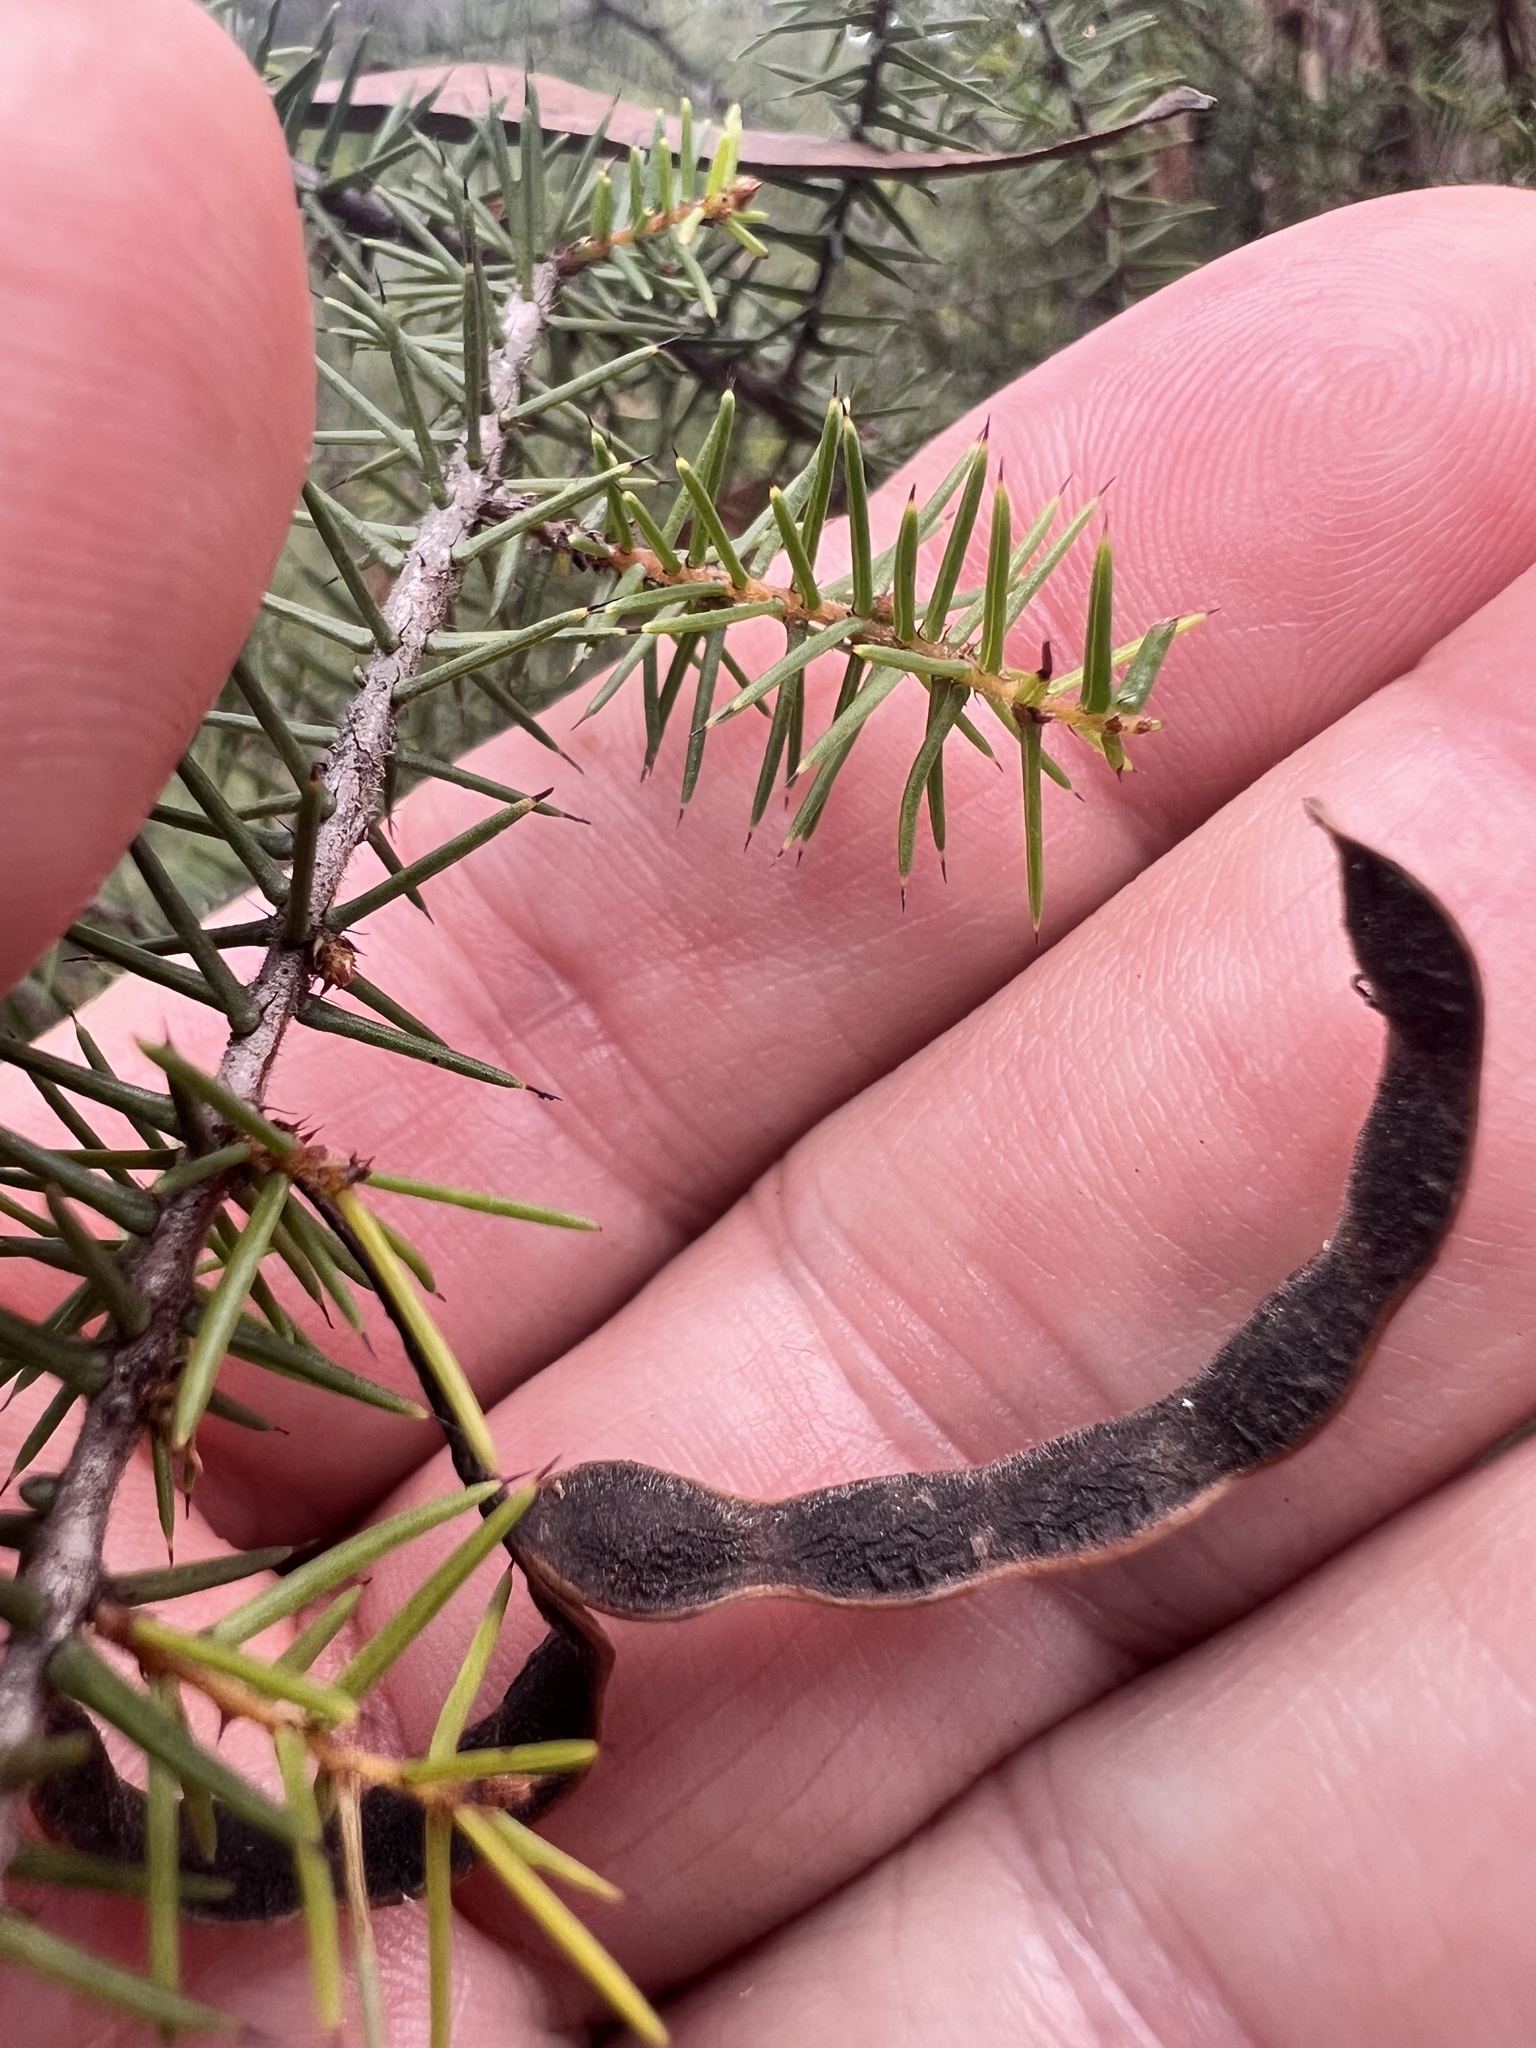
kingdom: Plantae
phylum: Tracheophyta
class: Magnoliopsida
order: Fabales
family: Fabaceae
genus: Acacia
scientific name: Acacia echinula
